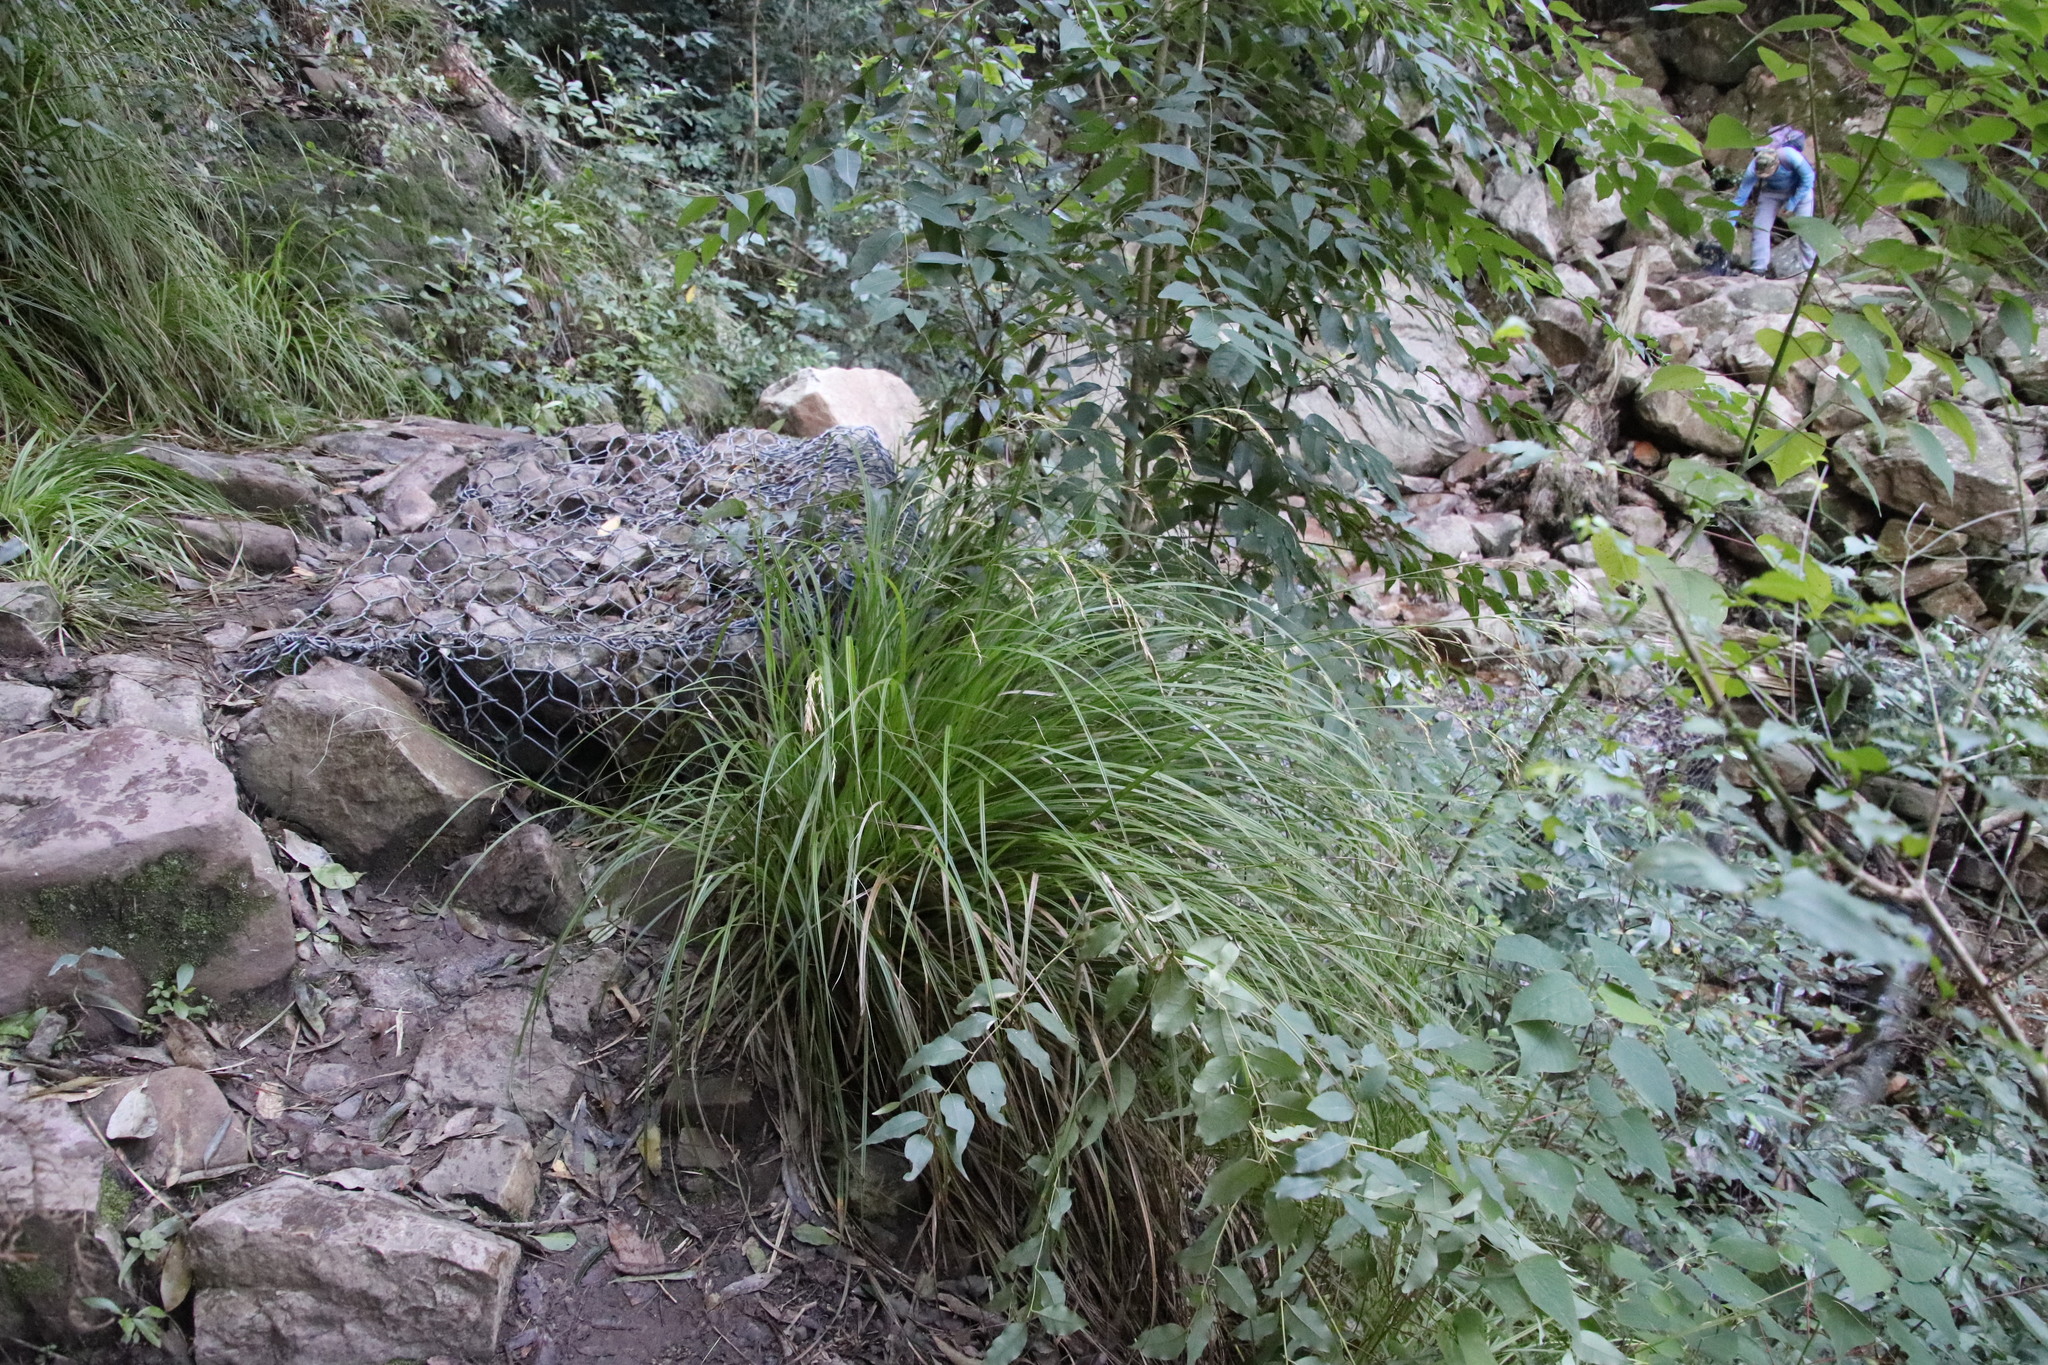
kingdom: Plantae
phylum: Tracheophyta
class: Liliopsida
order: Poales
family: Cyperaceae
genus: Carex
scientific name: Carex lancea
